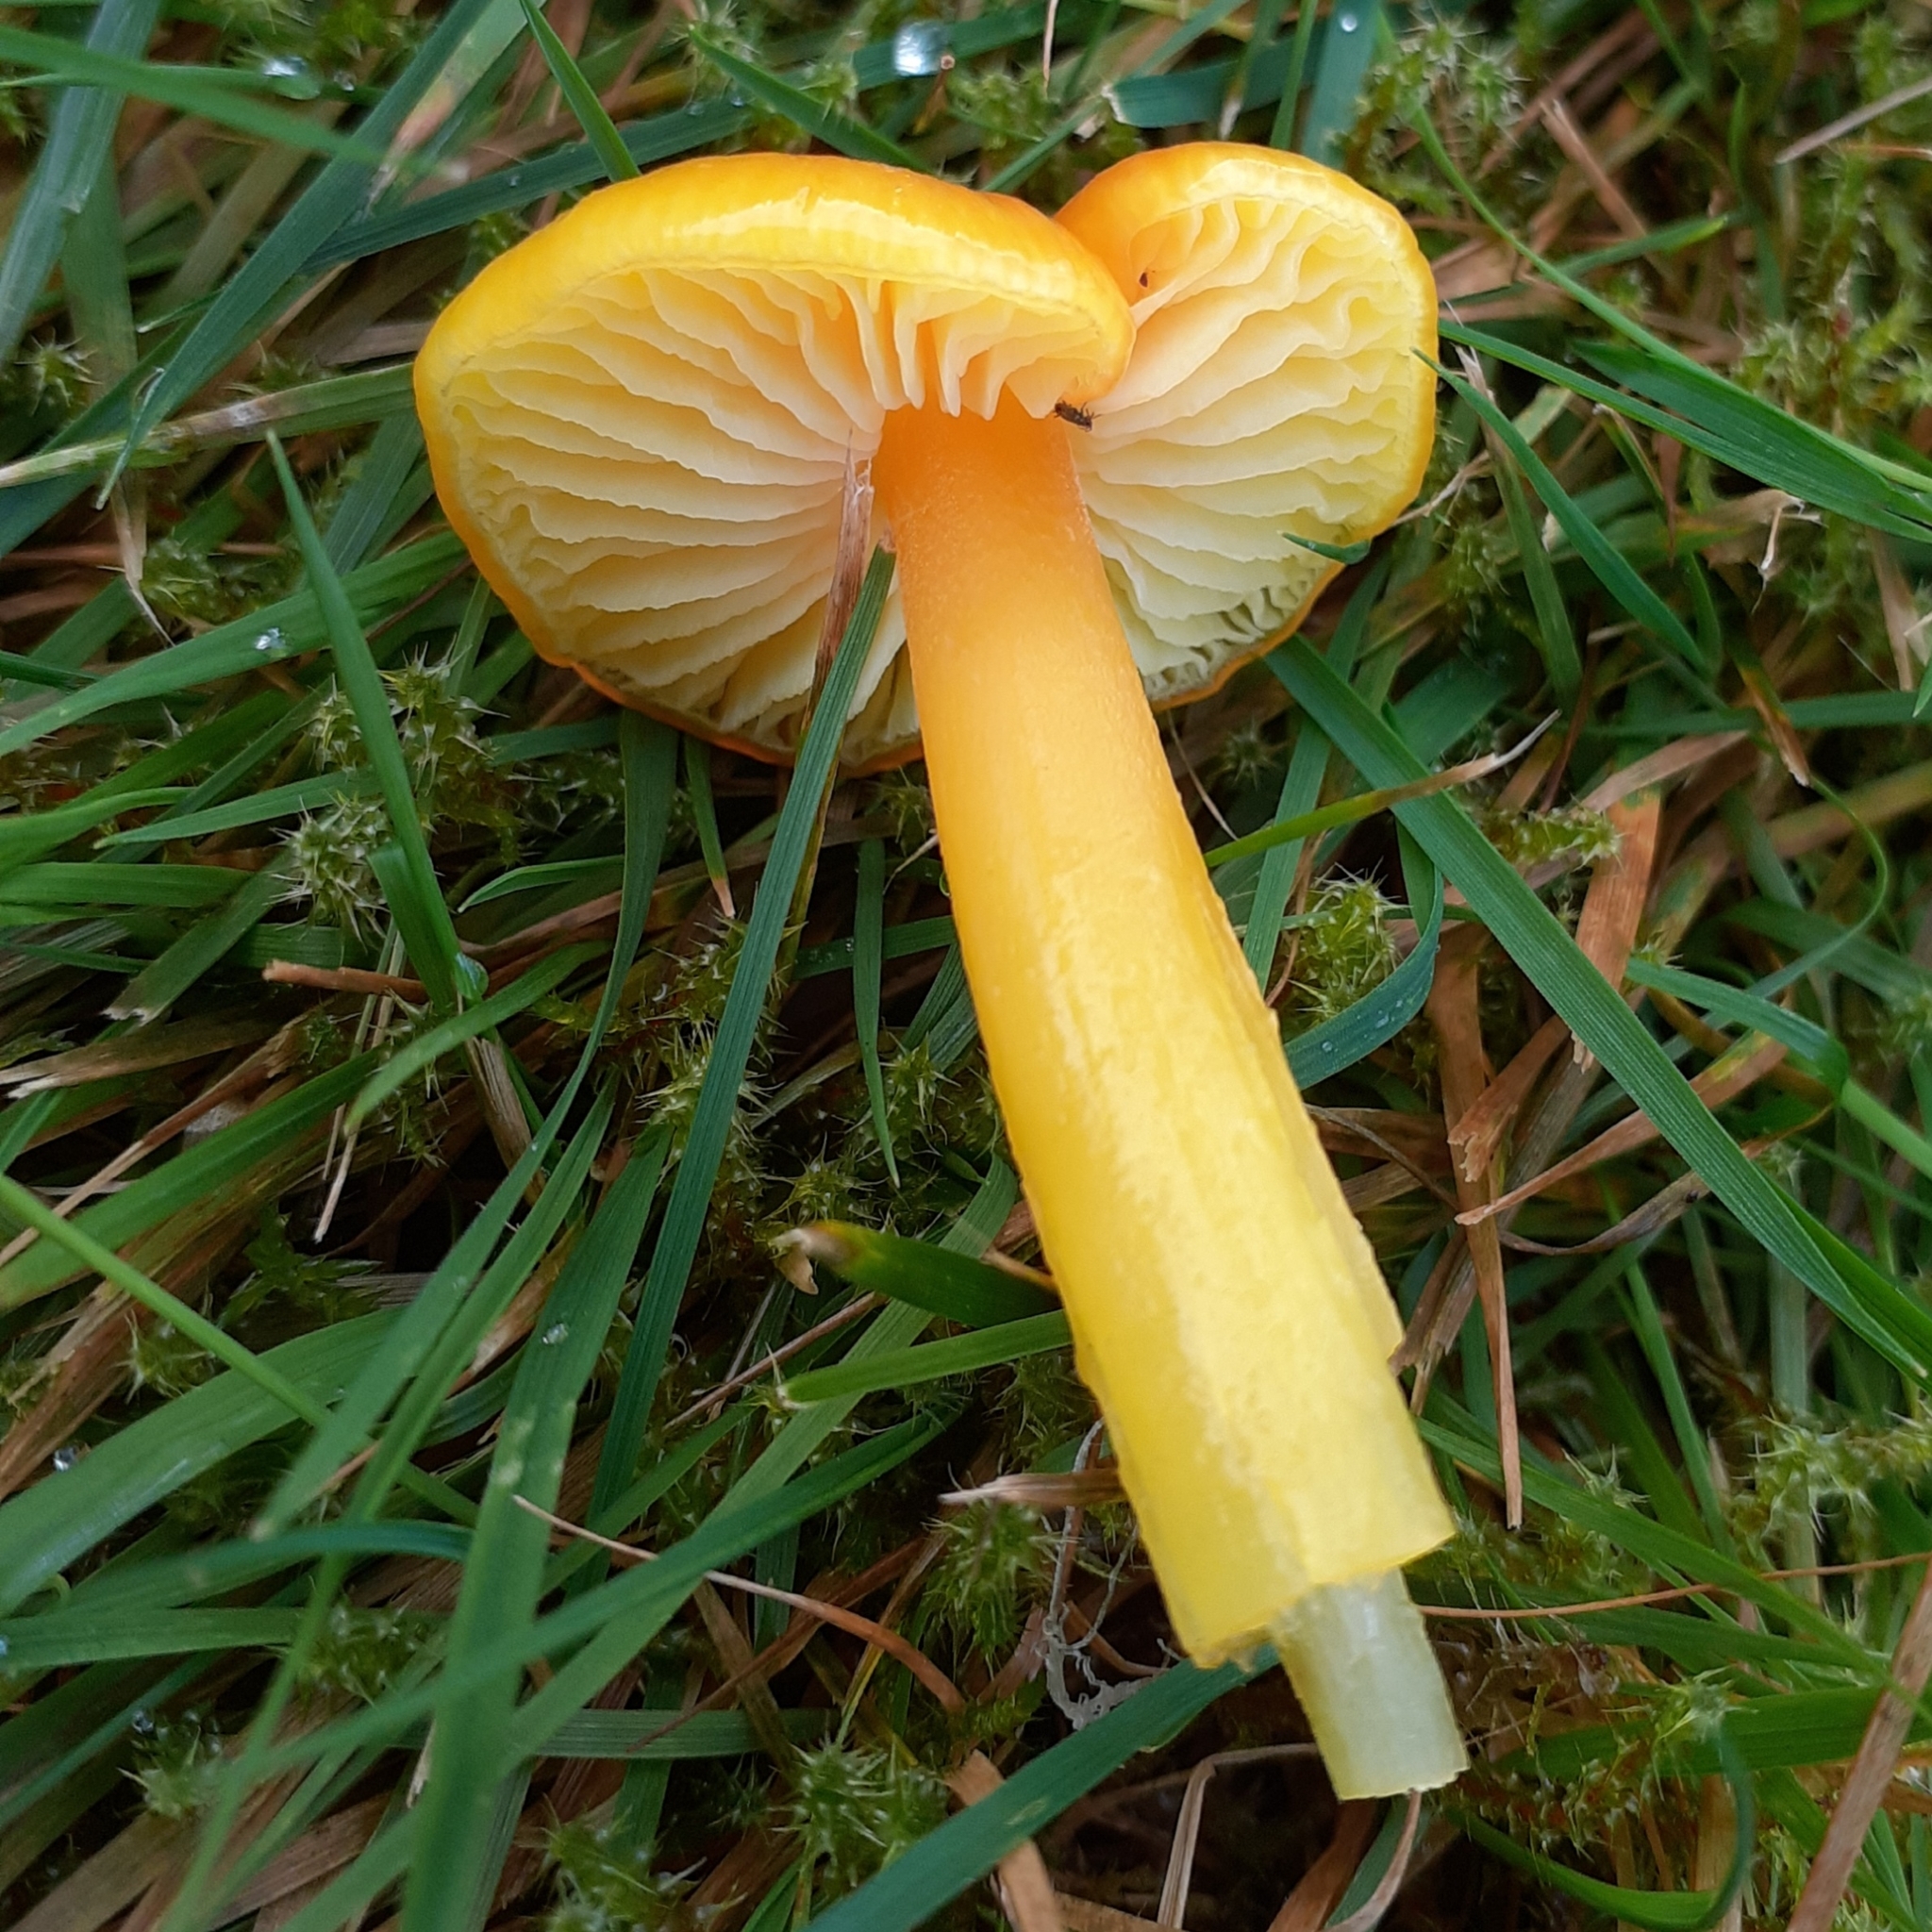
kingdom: Fungi
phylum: Basidiomycota
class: Agaricomycetes
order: Agaricales
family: Hygrophoraceae
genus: Hygrocybe
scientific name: Hygrocybe chlorophana
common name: Golden waxcap
